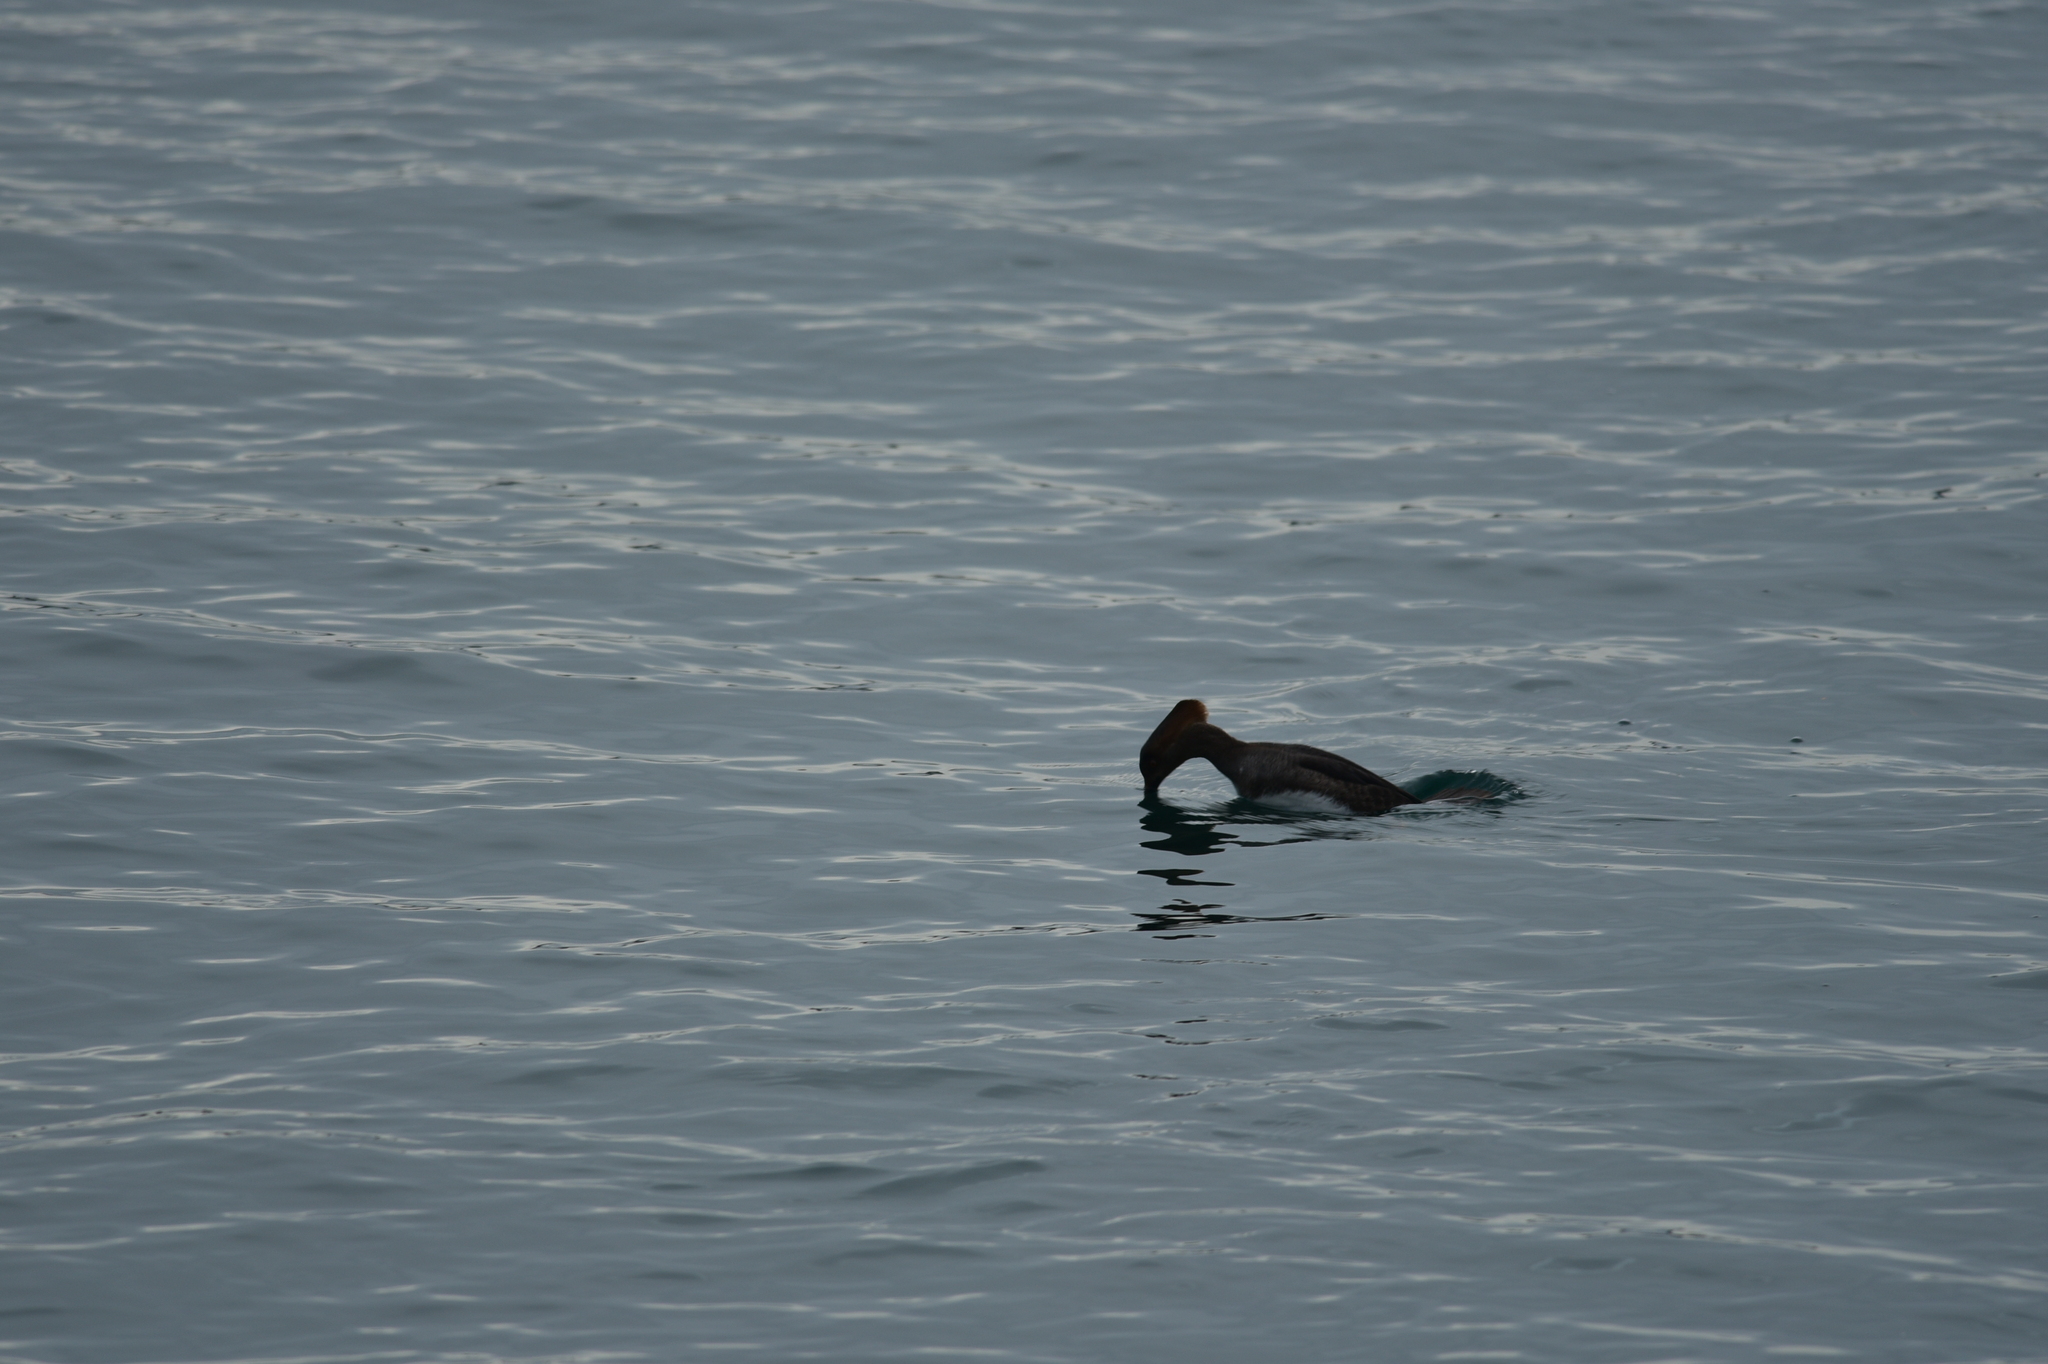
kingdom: Animalia
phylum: Chordata
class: Aves
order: Anseriformes
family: Anatidae
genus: Lophodytes
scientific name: Lophodytes cucullatus
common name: Hooded merganser
